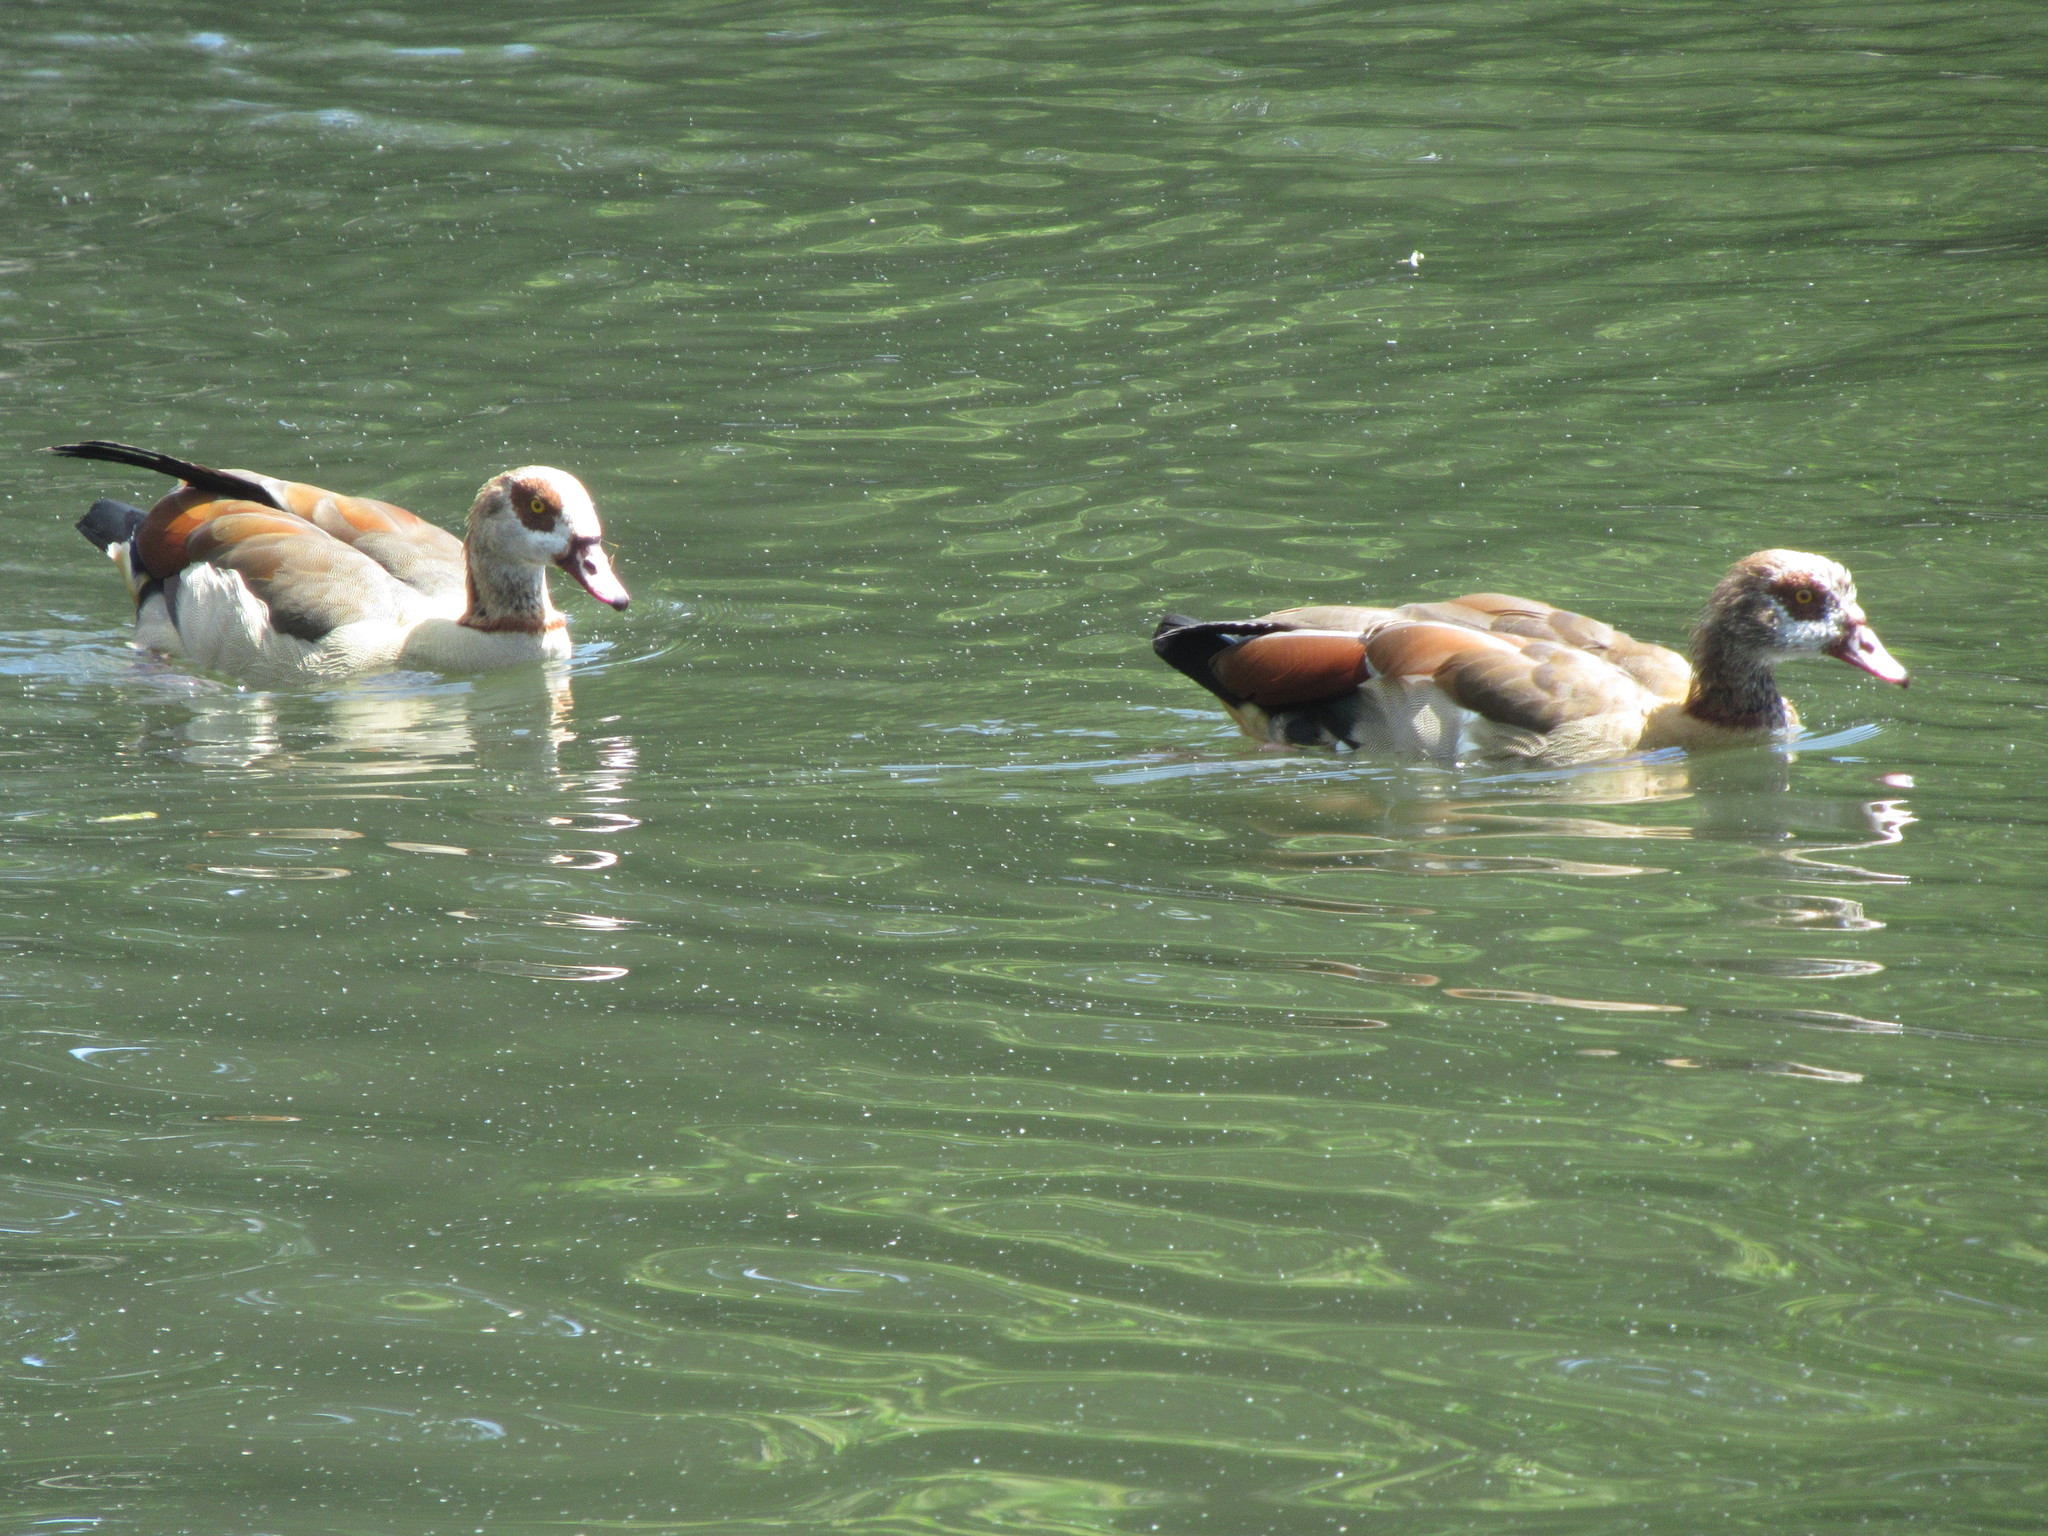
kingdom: Animalia
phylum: Chordata
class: Aves
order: Anseriformes
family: Anatidae
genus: Alopochen
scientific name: Alopochen aegyptiaca
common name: Egyptian goose
